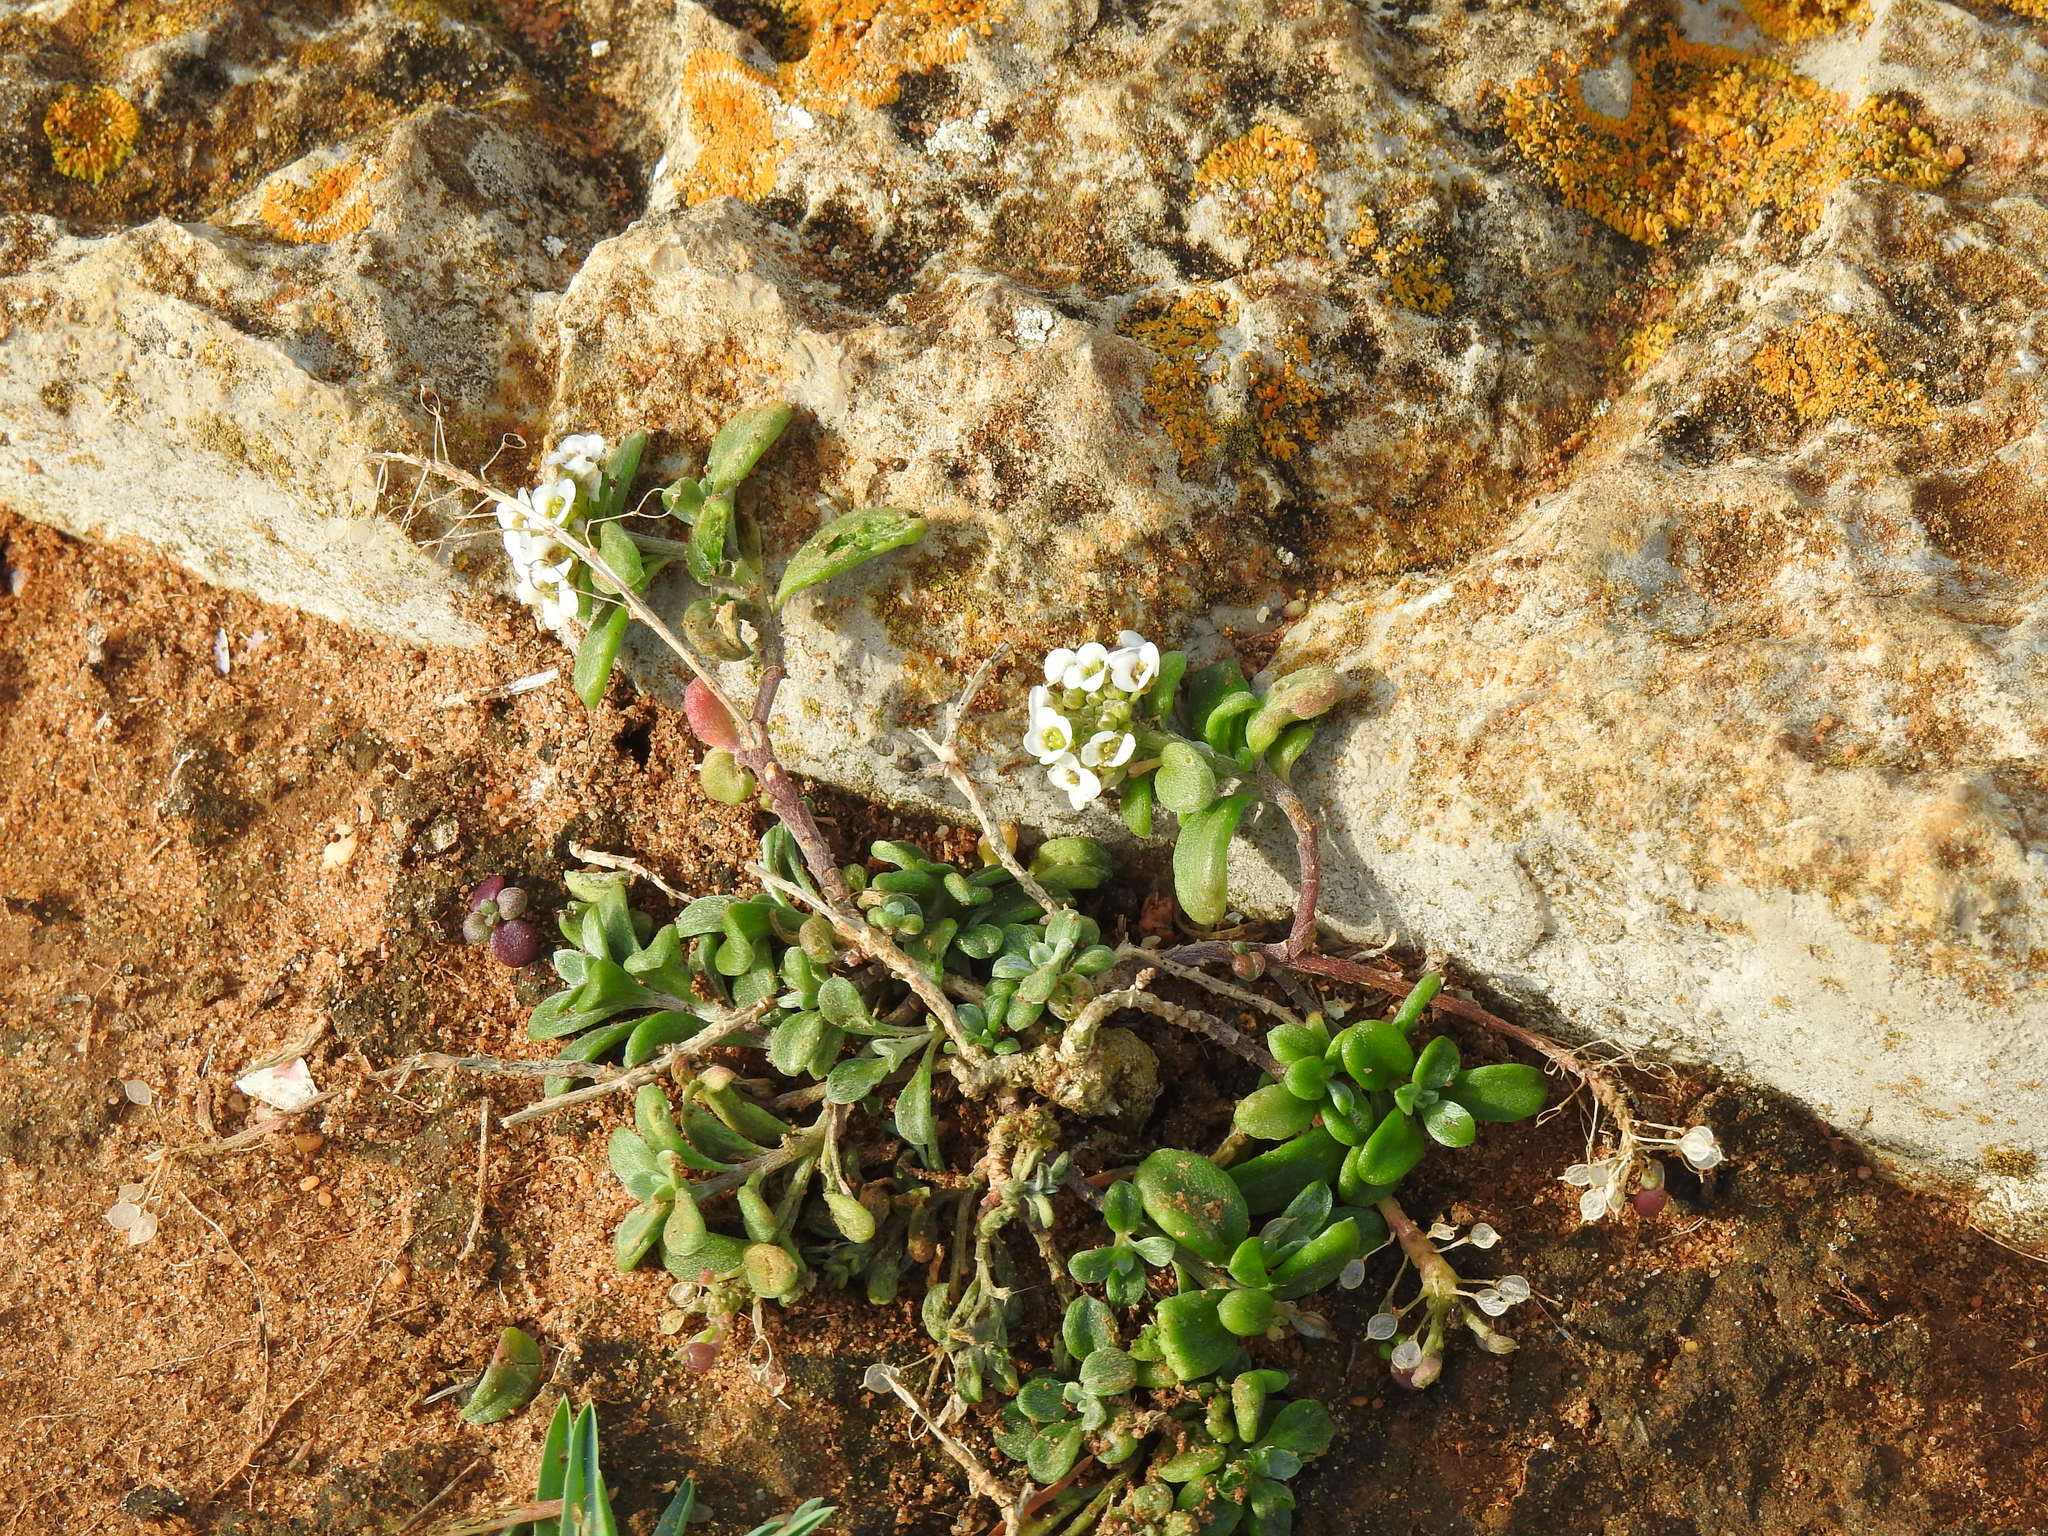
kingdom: Plantae
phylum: Tracheophyta
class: Magnoliopsida
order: Brassicales
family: Brassicaceae
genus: Lobularia
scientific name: Lobularia maritima
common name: Sweet alison
